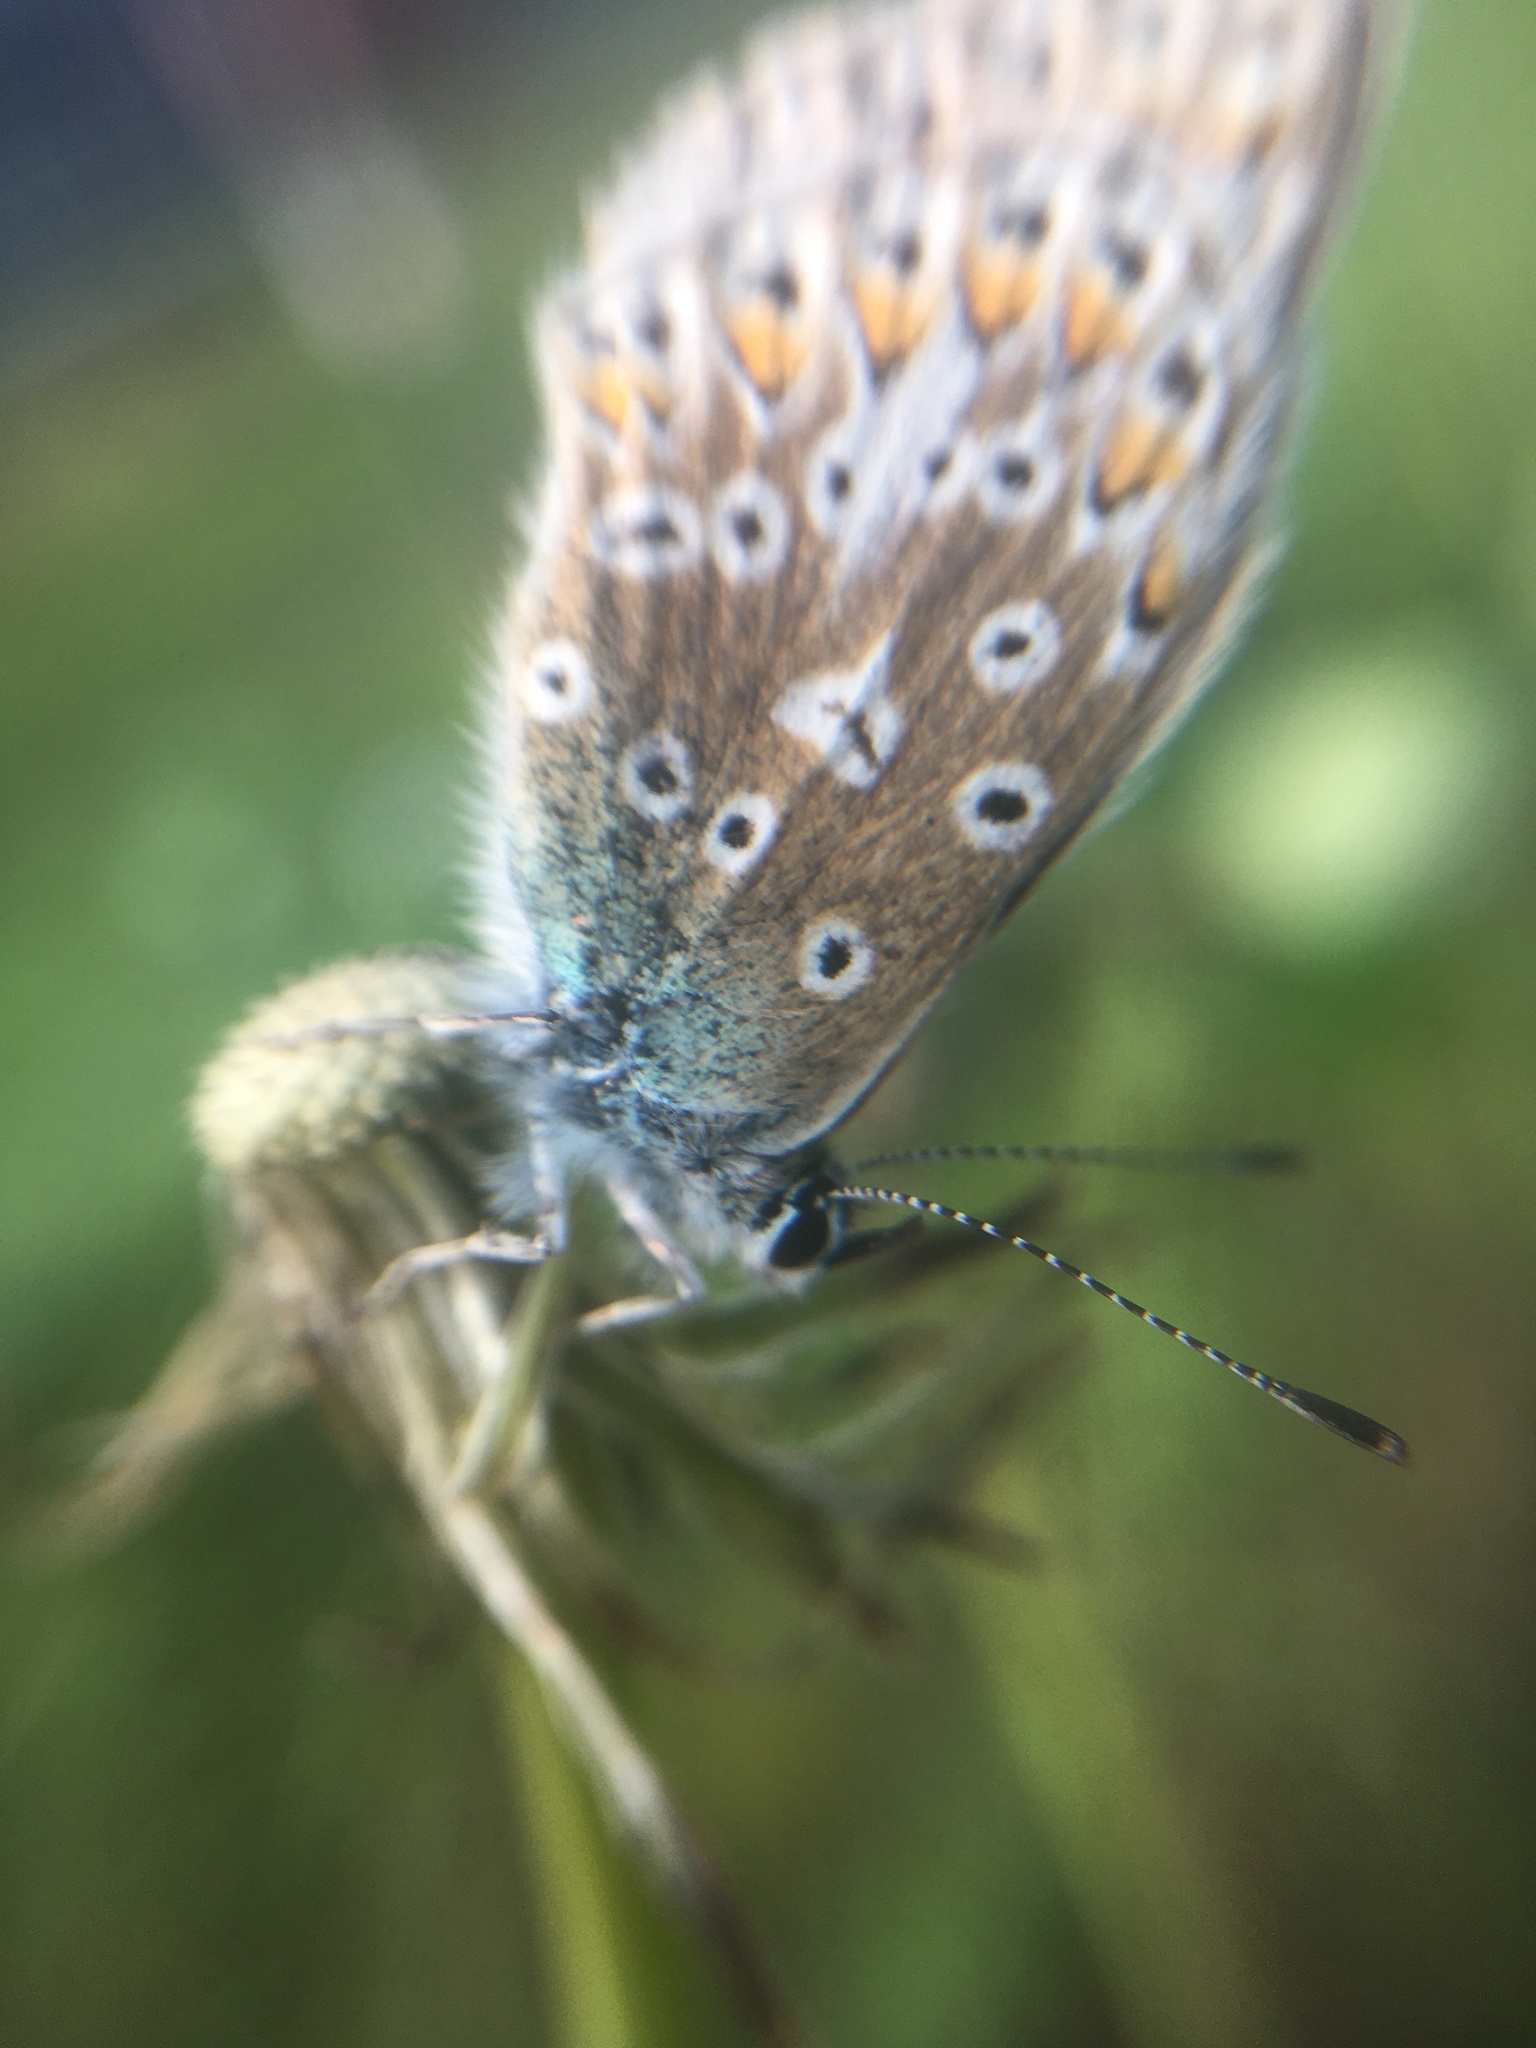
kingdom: Animalia
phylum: Arthropoda
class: Insecta
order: Lepidoptera
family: Lycaenidae
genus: Polyommatus
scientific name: Polyommatus icarus
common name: Common blue
